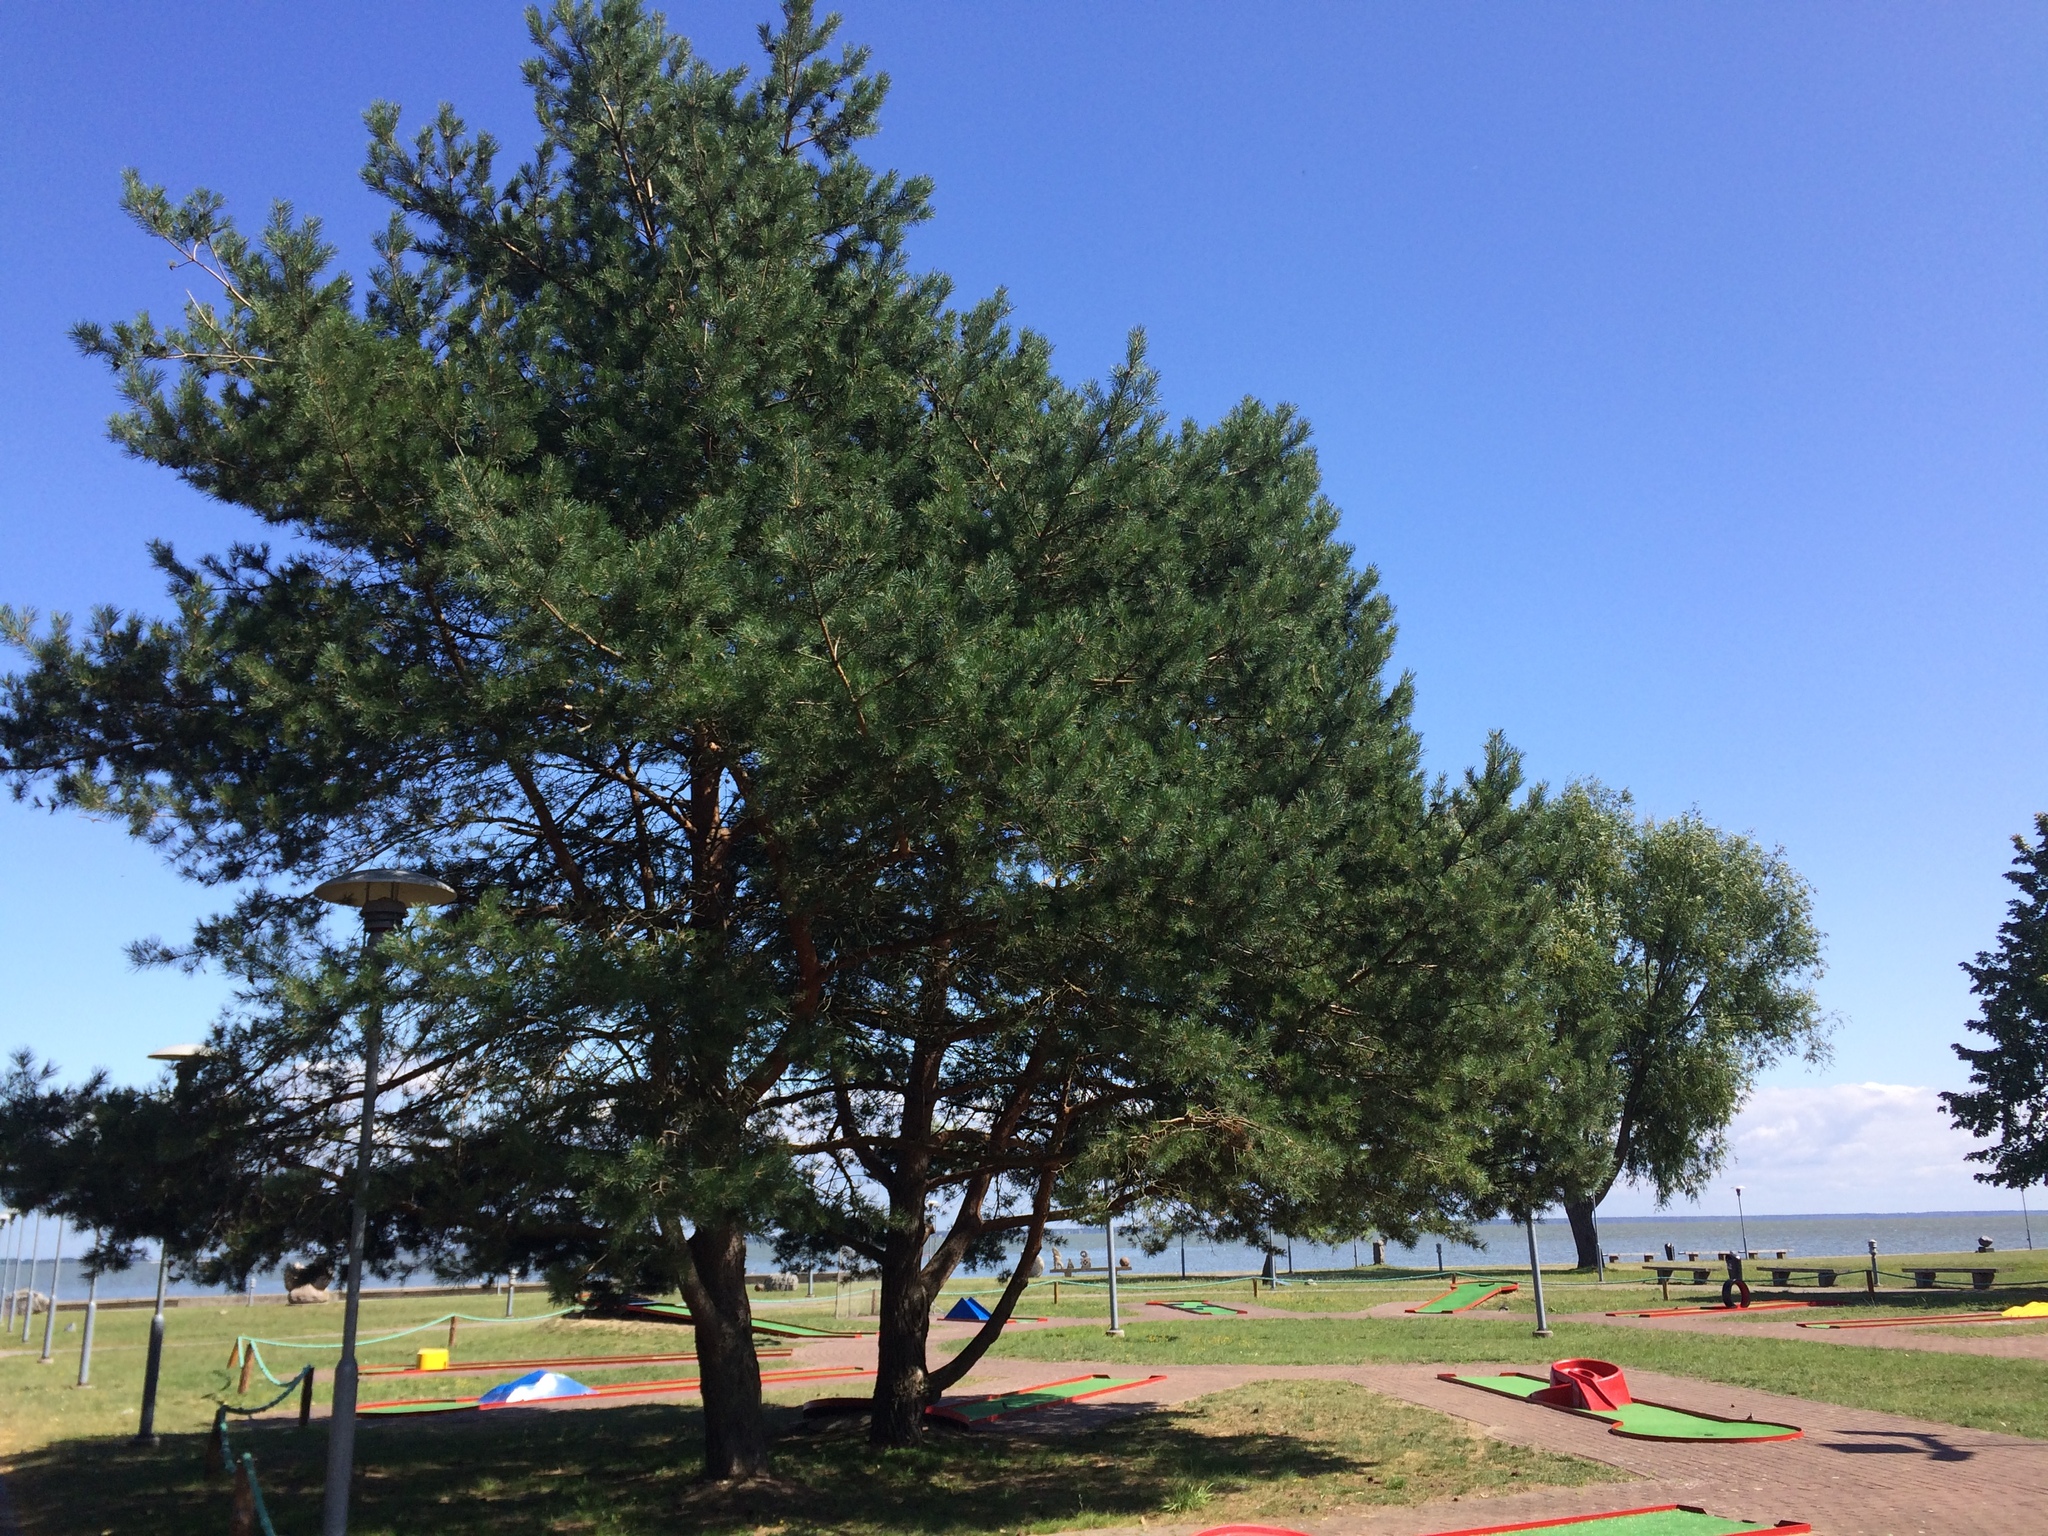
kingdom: Plantae
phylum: Tracheophyta
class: Pinopsida
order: Pinales
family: Pinaceae
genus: Pinus
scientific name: Pinus sylvestris
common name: Scots pine
